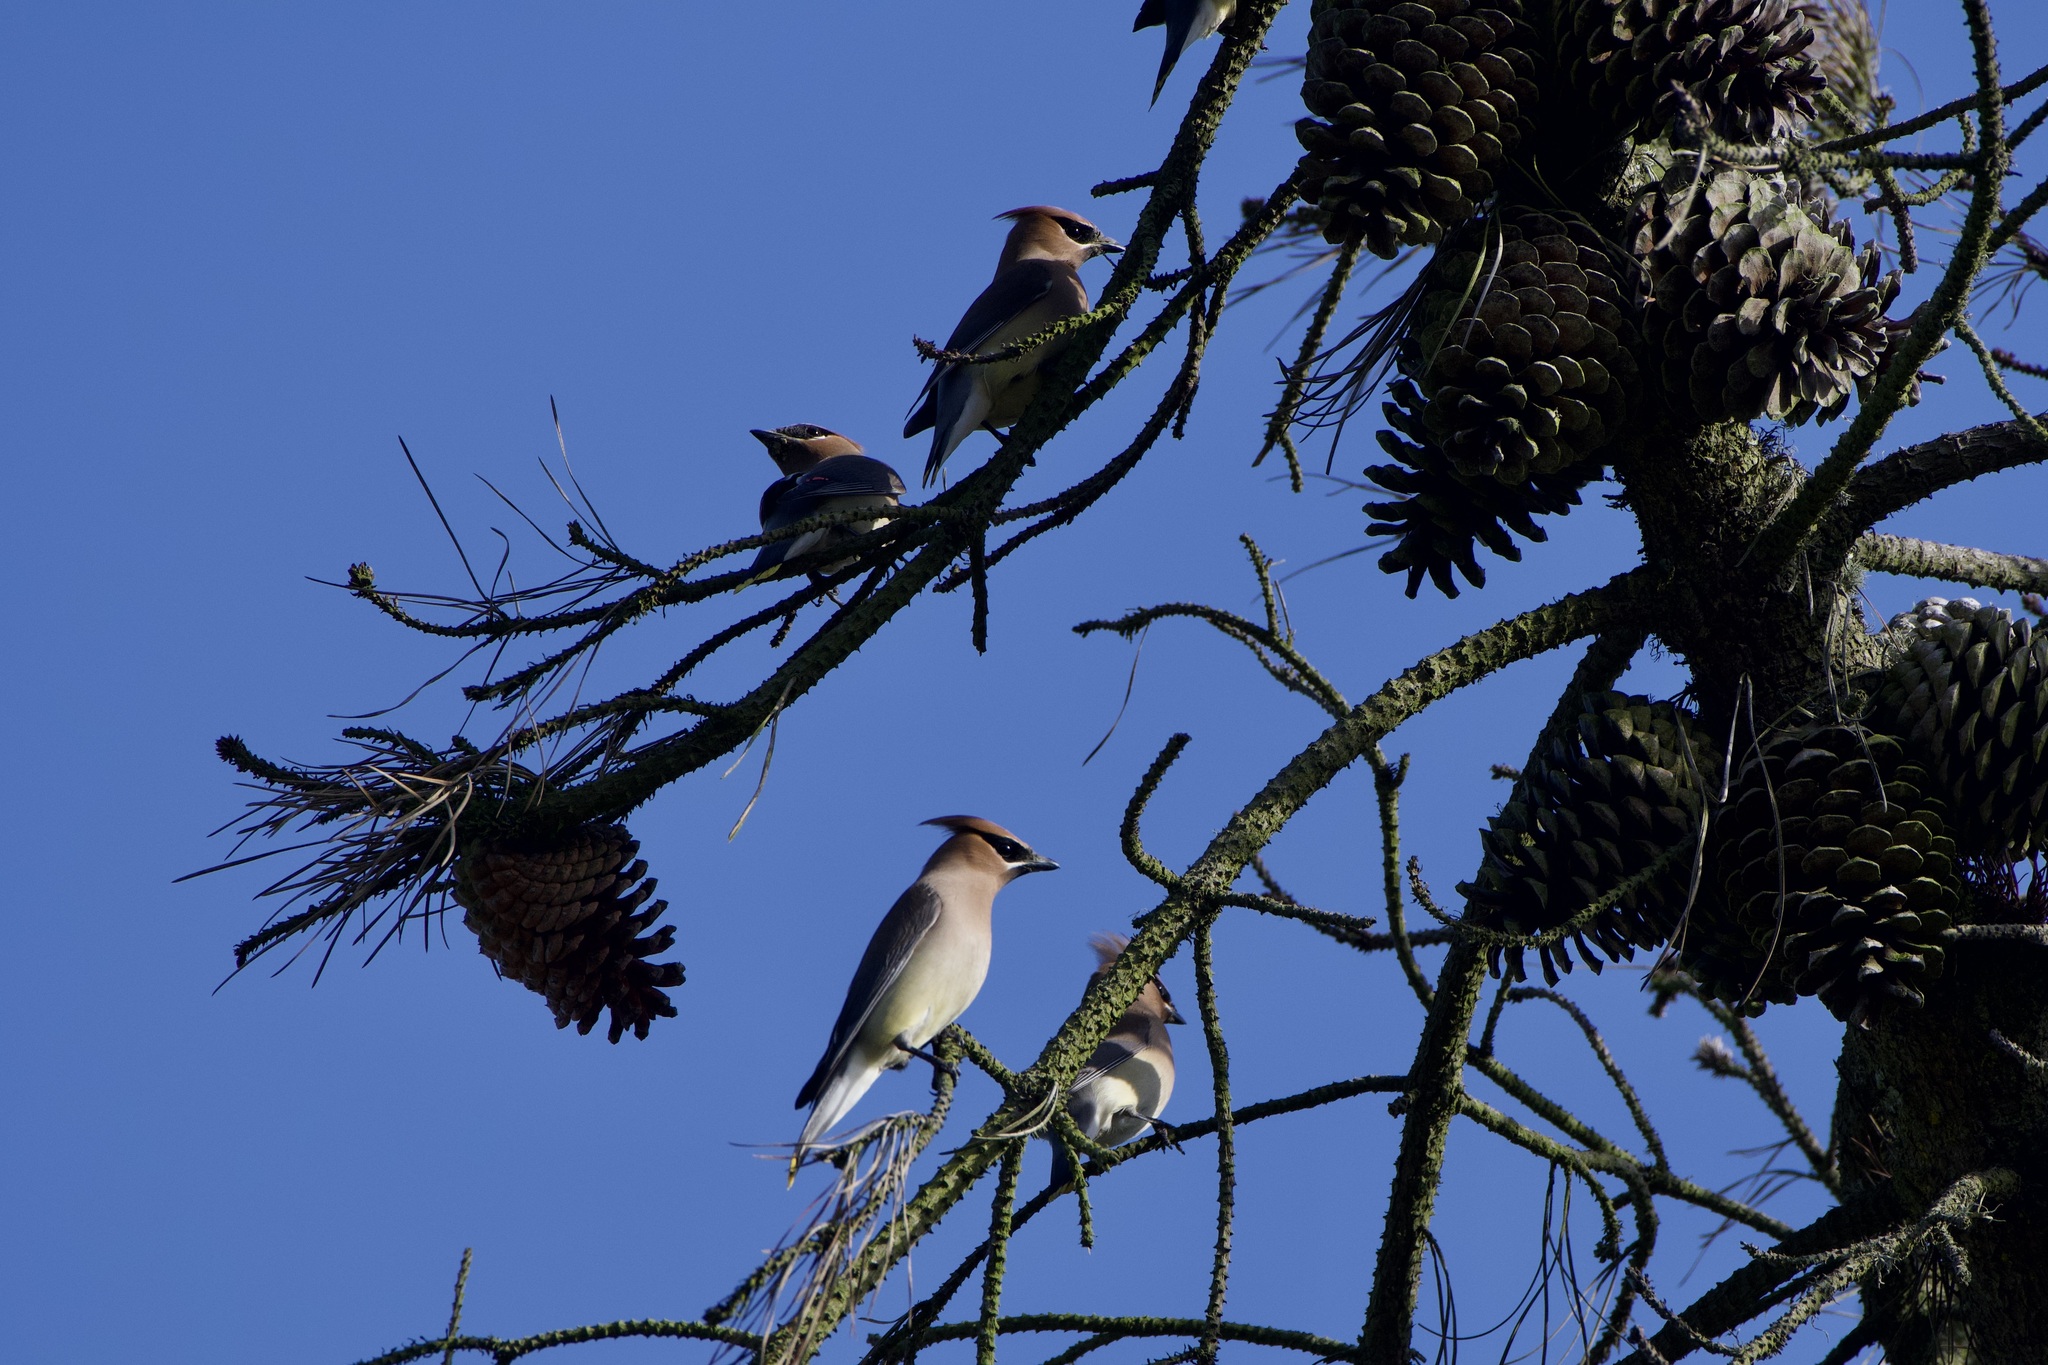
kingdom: Animalia
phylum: Chordata
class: Aves
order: Passeriformes
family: Bombycillidae
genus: Bombycilla
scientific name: Bombycilla cedrorum
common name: Cedar waxwing
